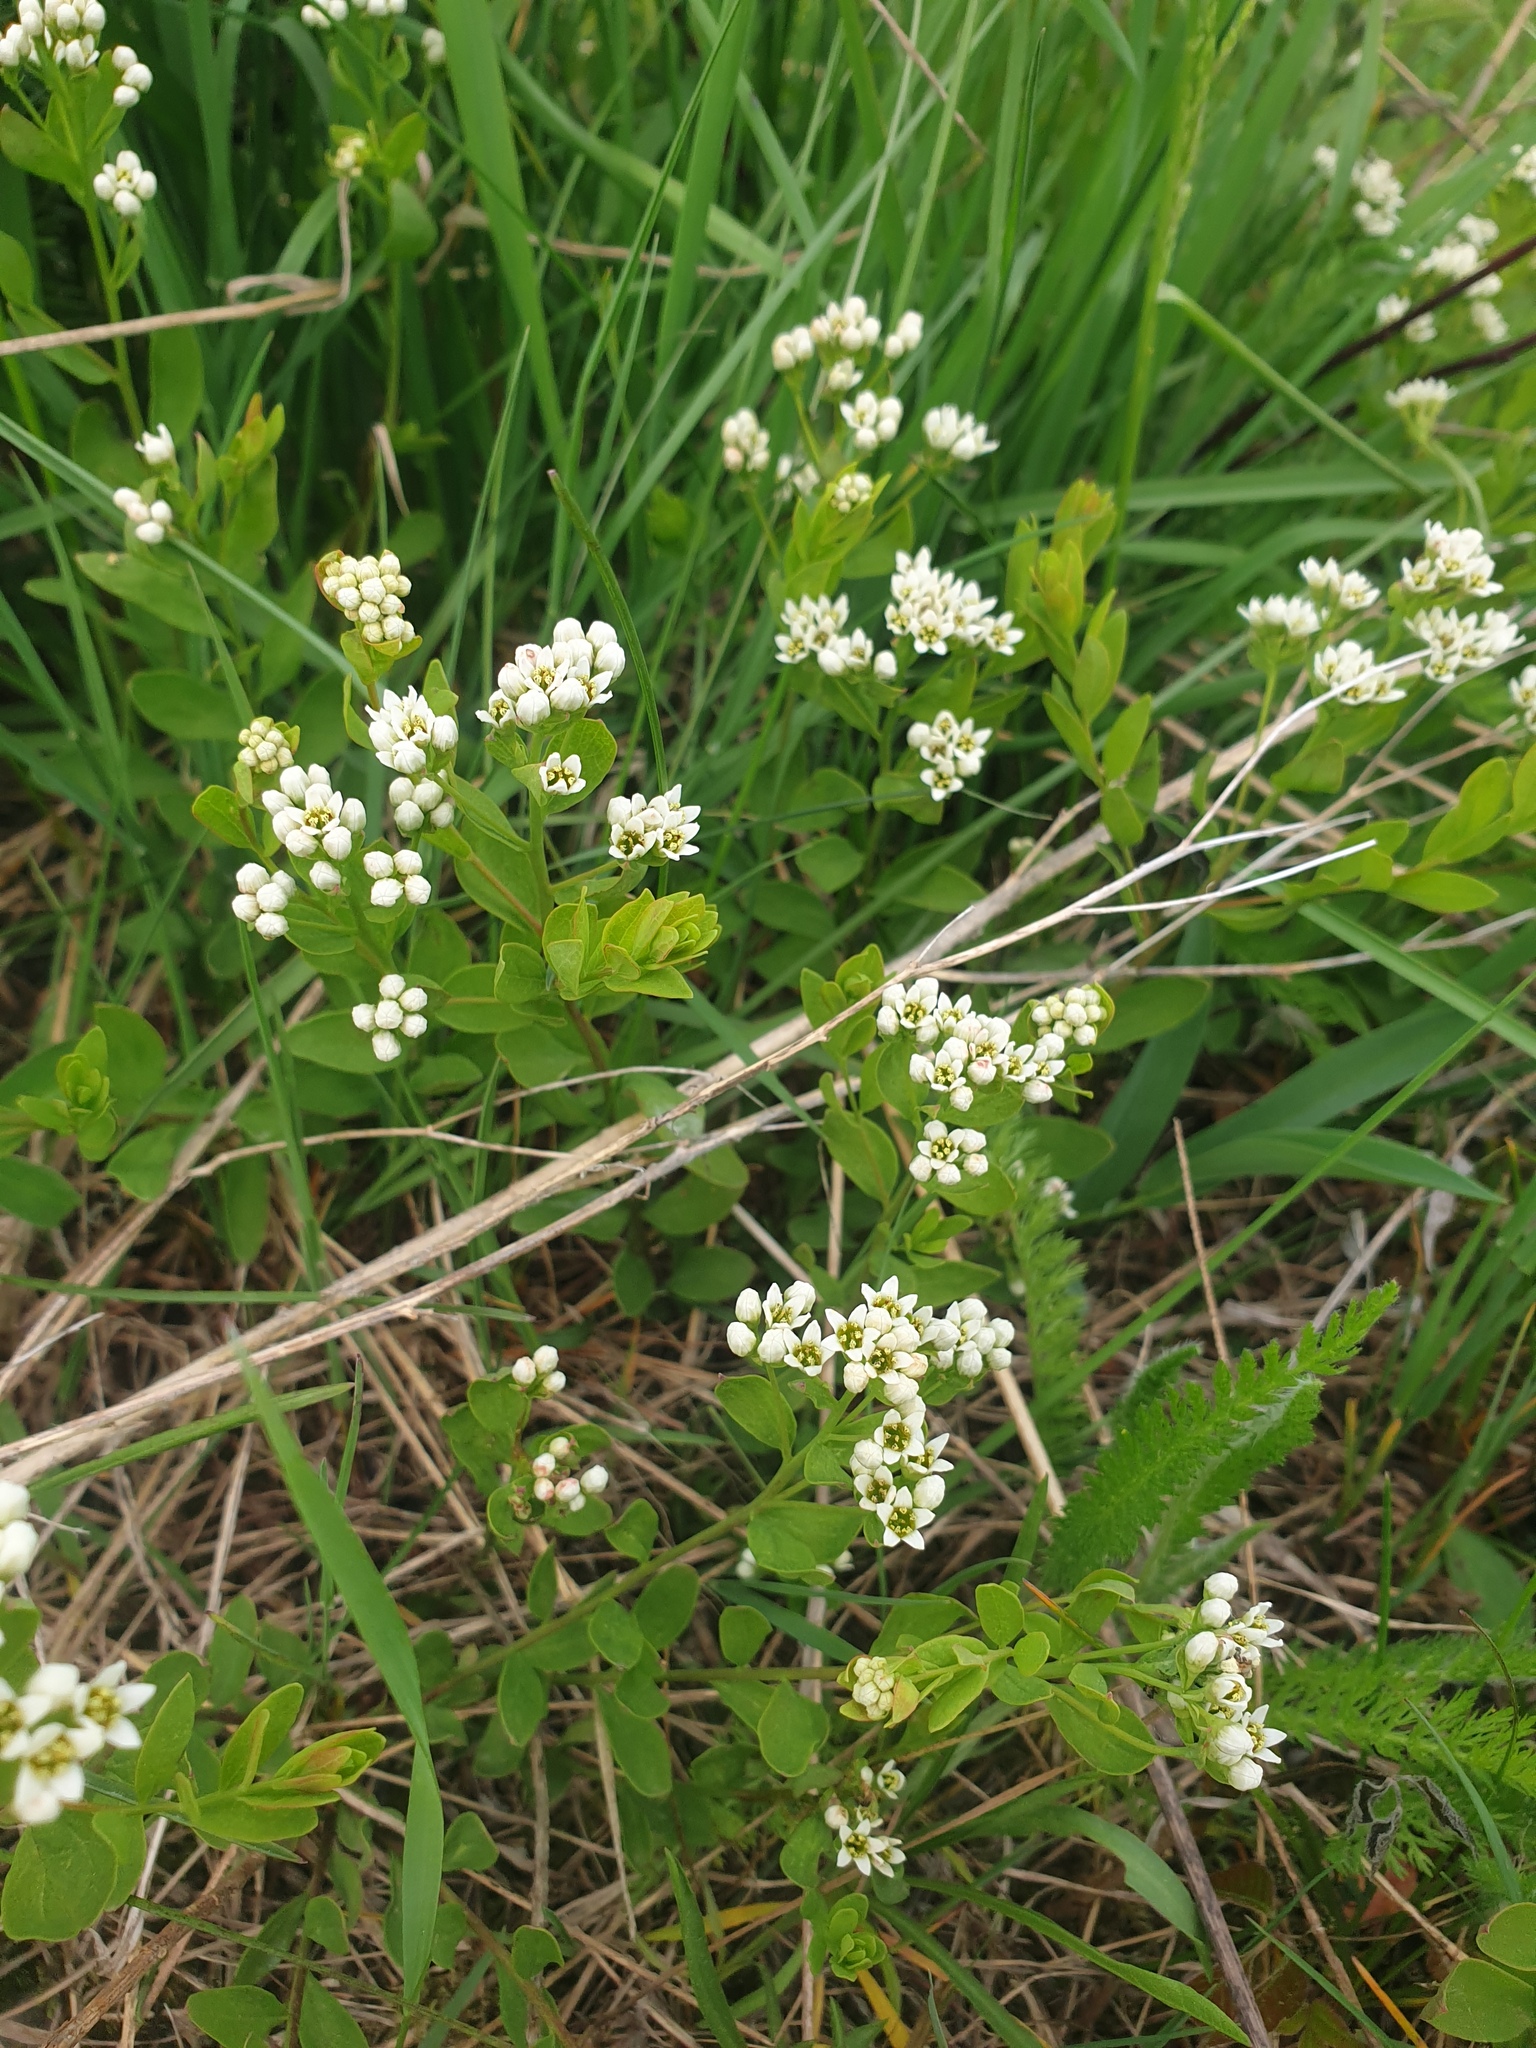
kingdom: Plantae
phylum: Tracheophyta
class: Magnoliopsida
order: Santalales
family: Comandraceae
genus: Comandra
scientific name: Comandra umbellata
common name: Bastard toadflax
